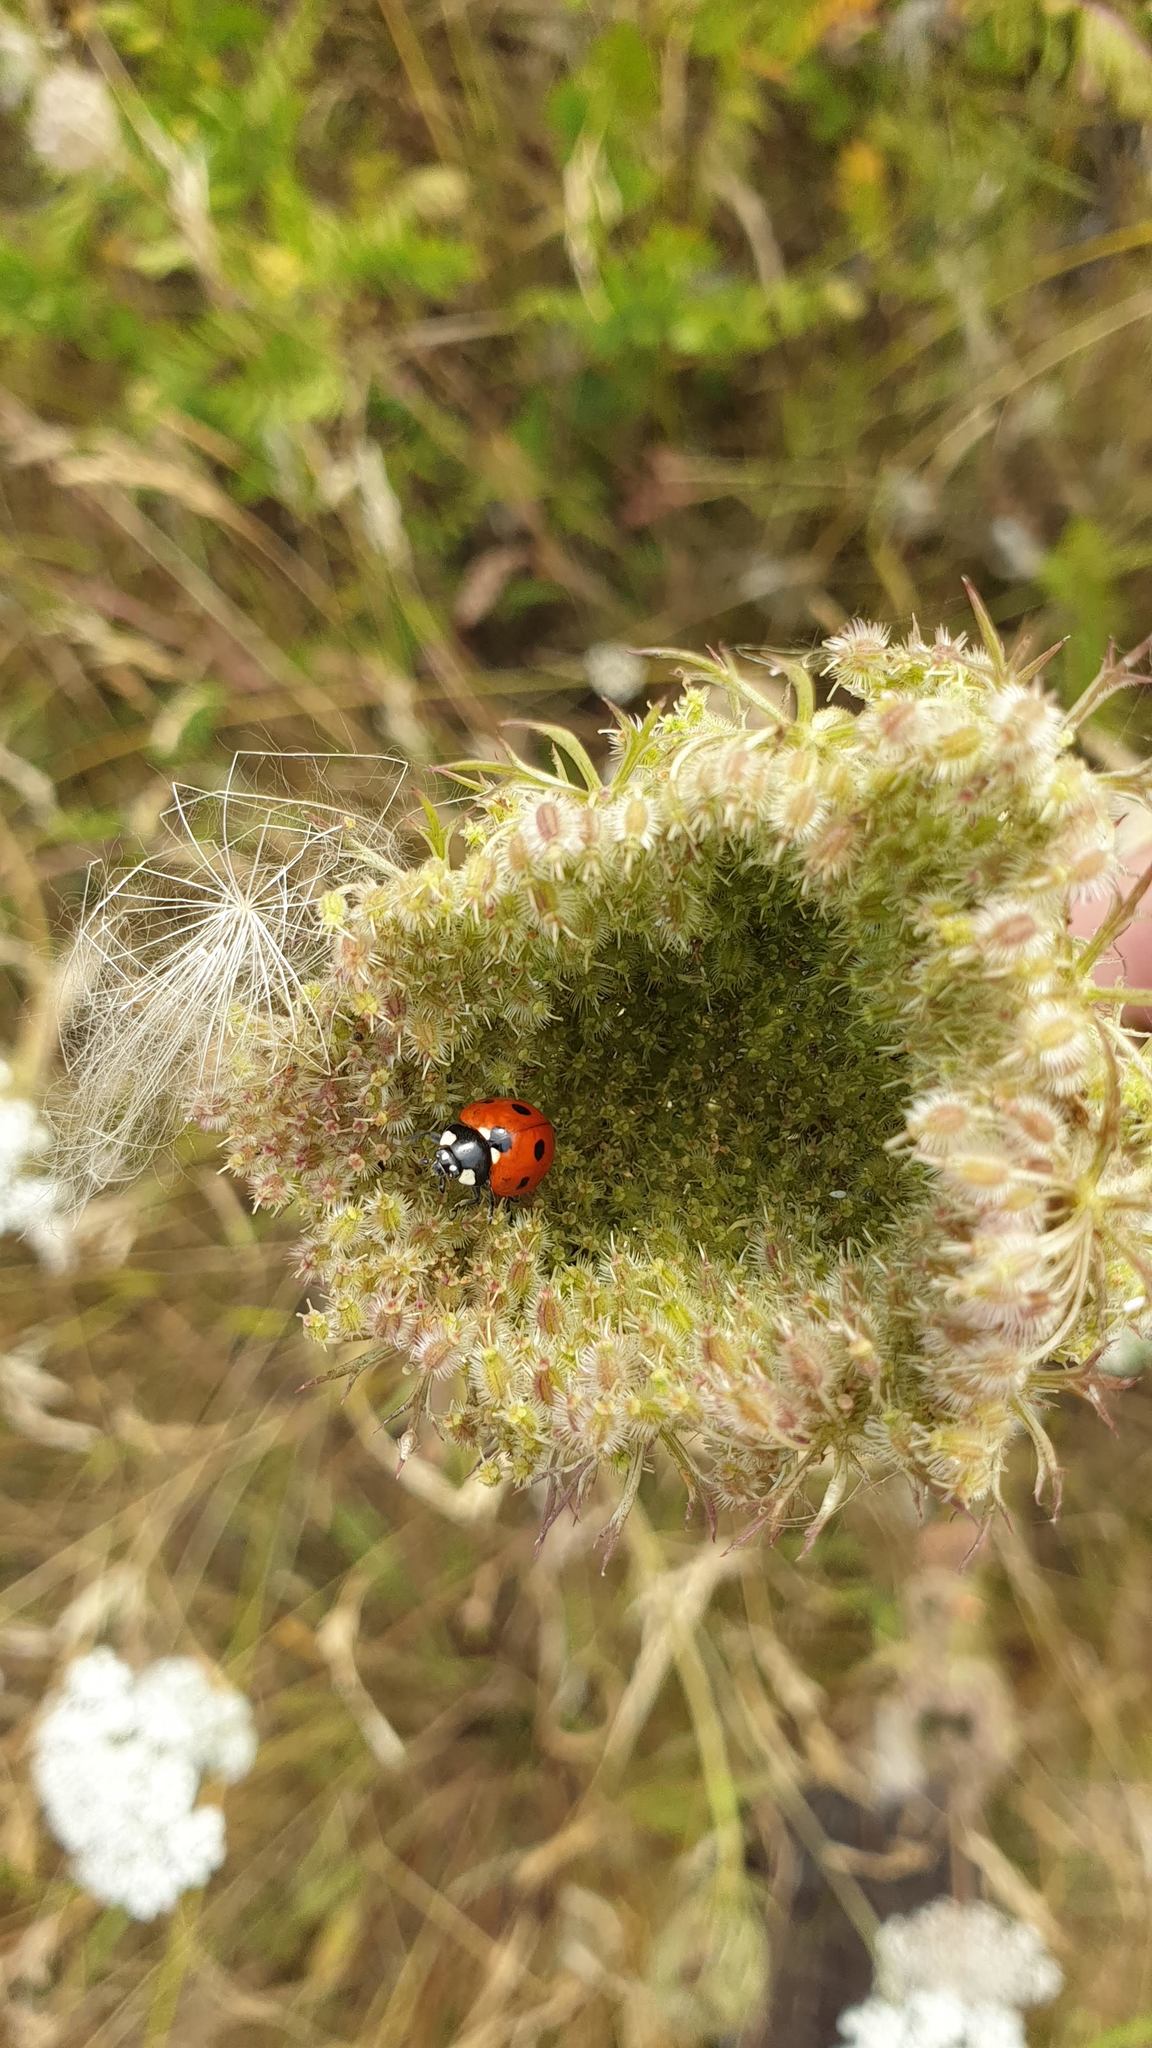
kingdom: Animalia
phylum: Arthropoda
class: Insecta
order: Coleoptera
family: Coccinellidae
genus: Coccinella
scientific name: Coccinella septempunctata
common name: Sevenspotted lady beetle
